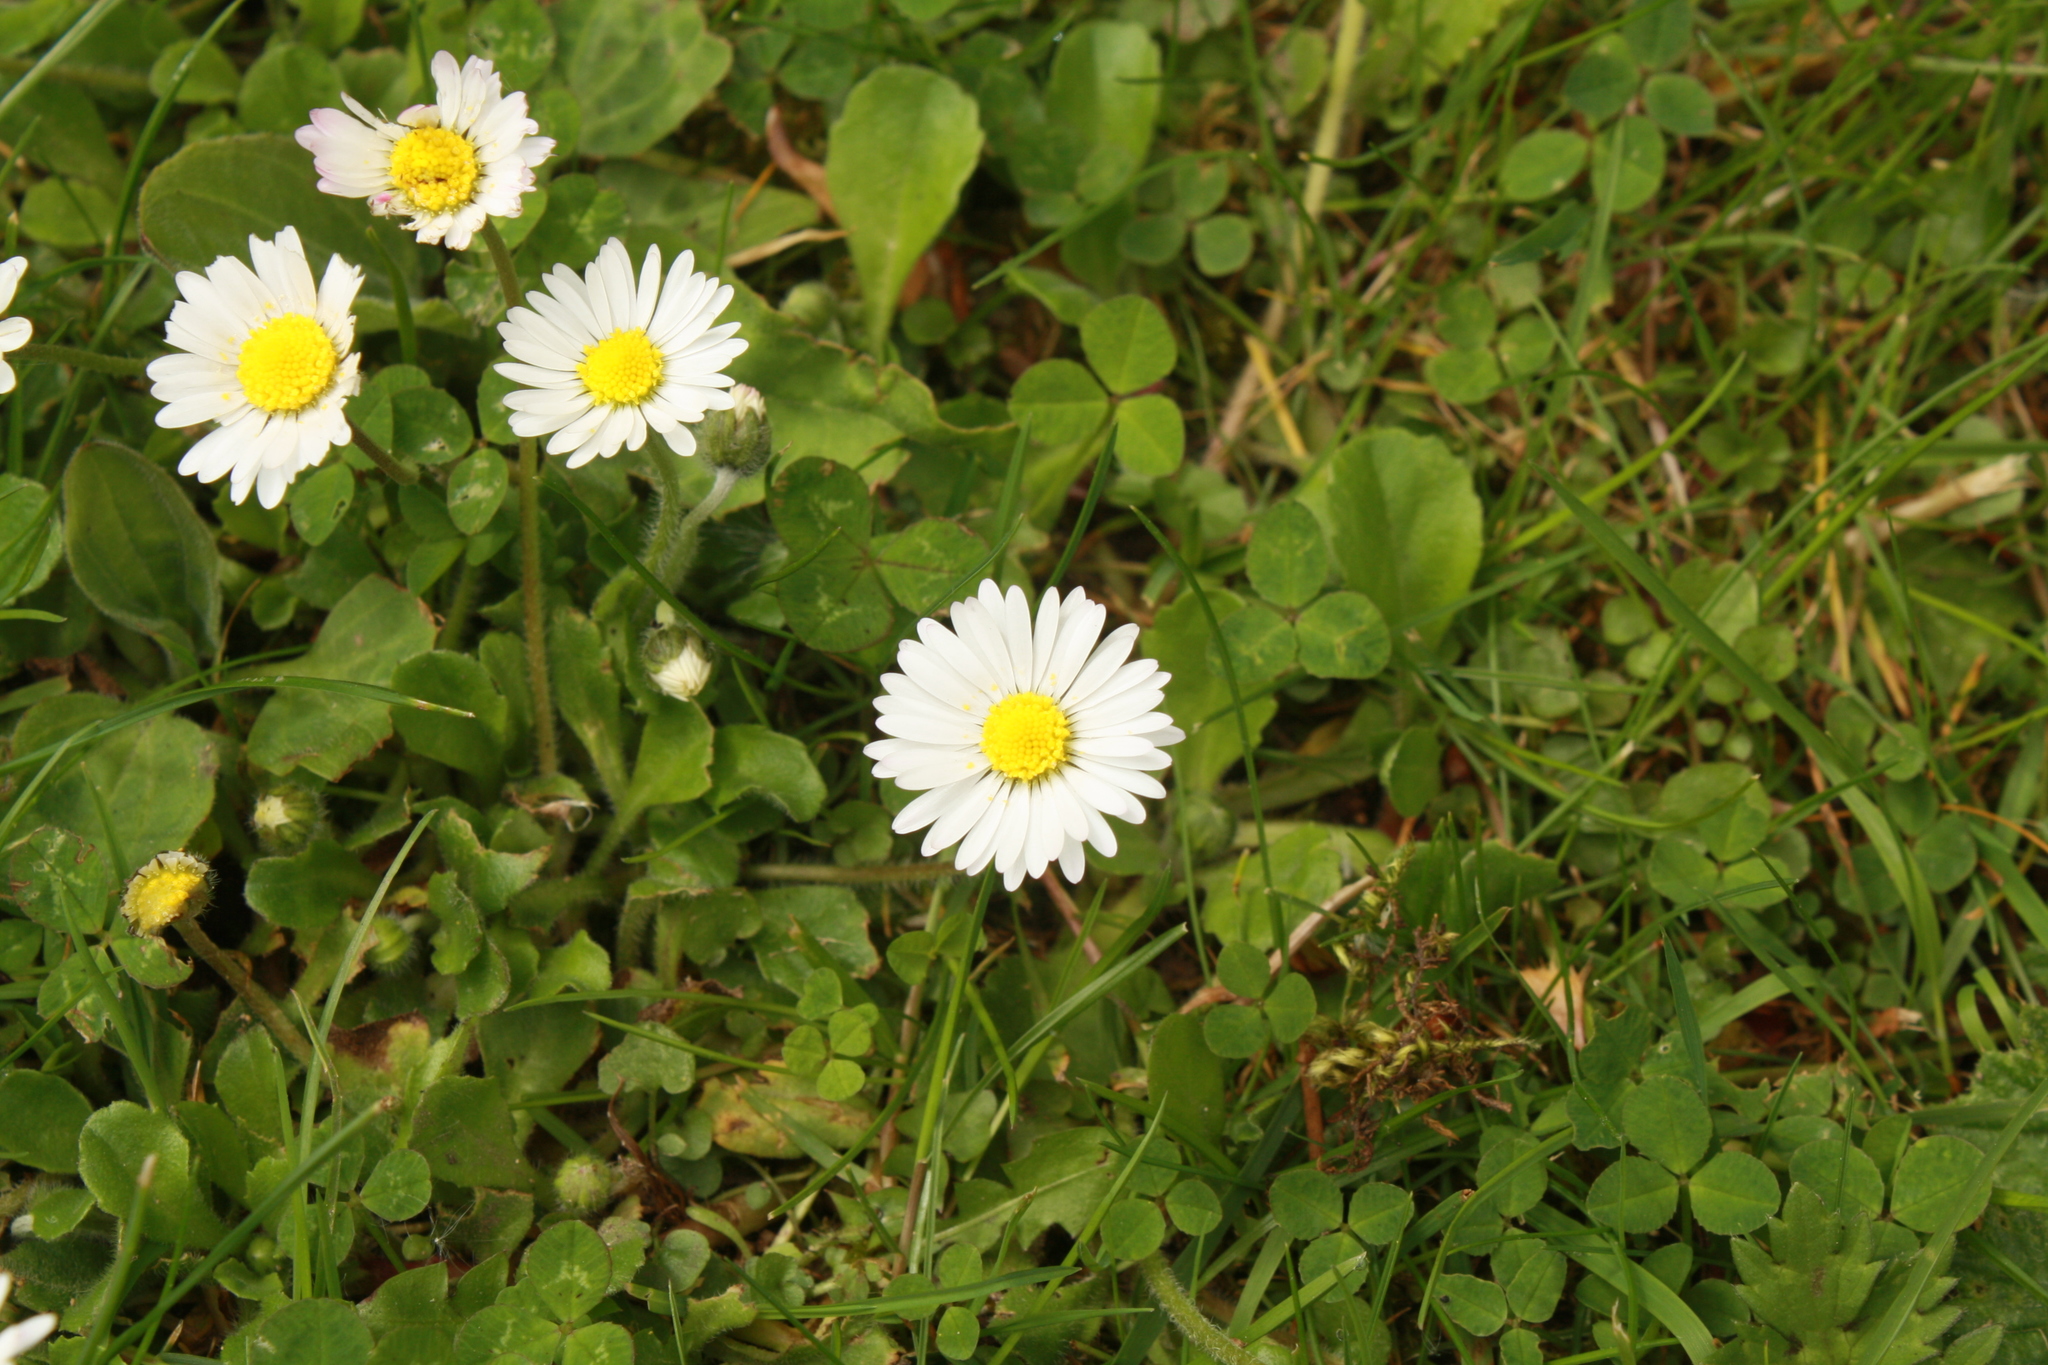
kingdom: Plantae
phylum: Tracheophyta
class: Magnoliopsida
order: Asterales
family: Asteraceae
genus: Bellis
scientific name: Bellis perennis
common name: Lawndaisy
